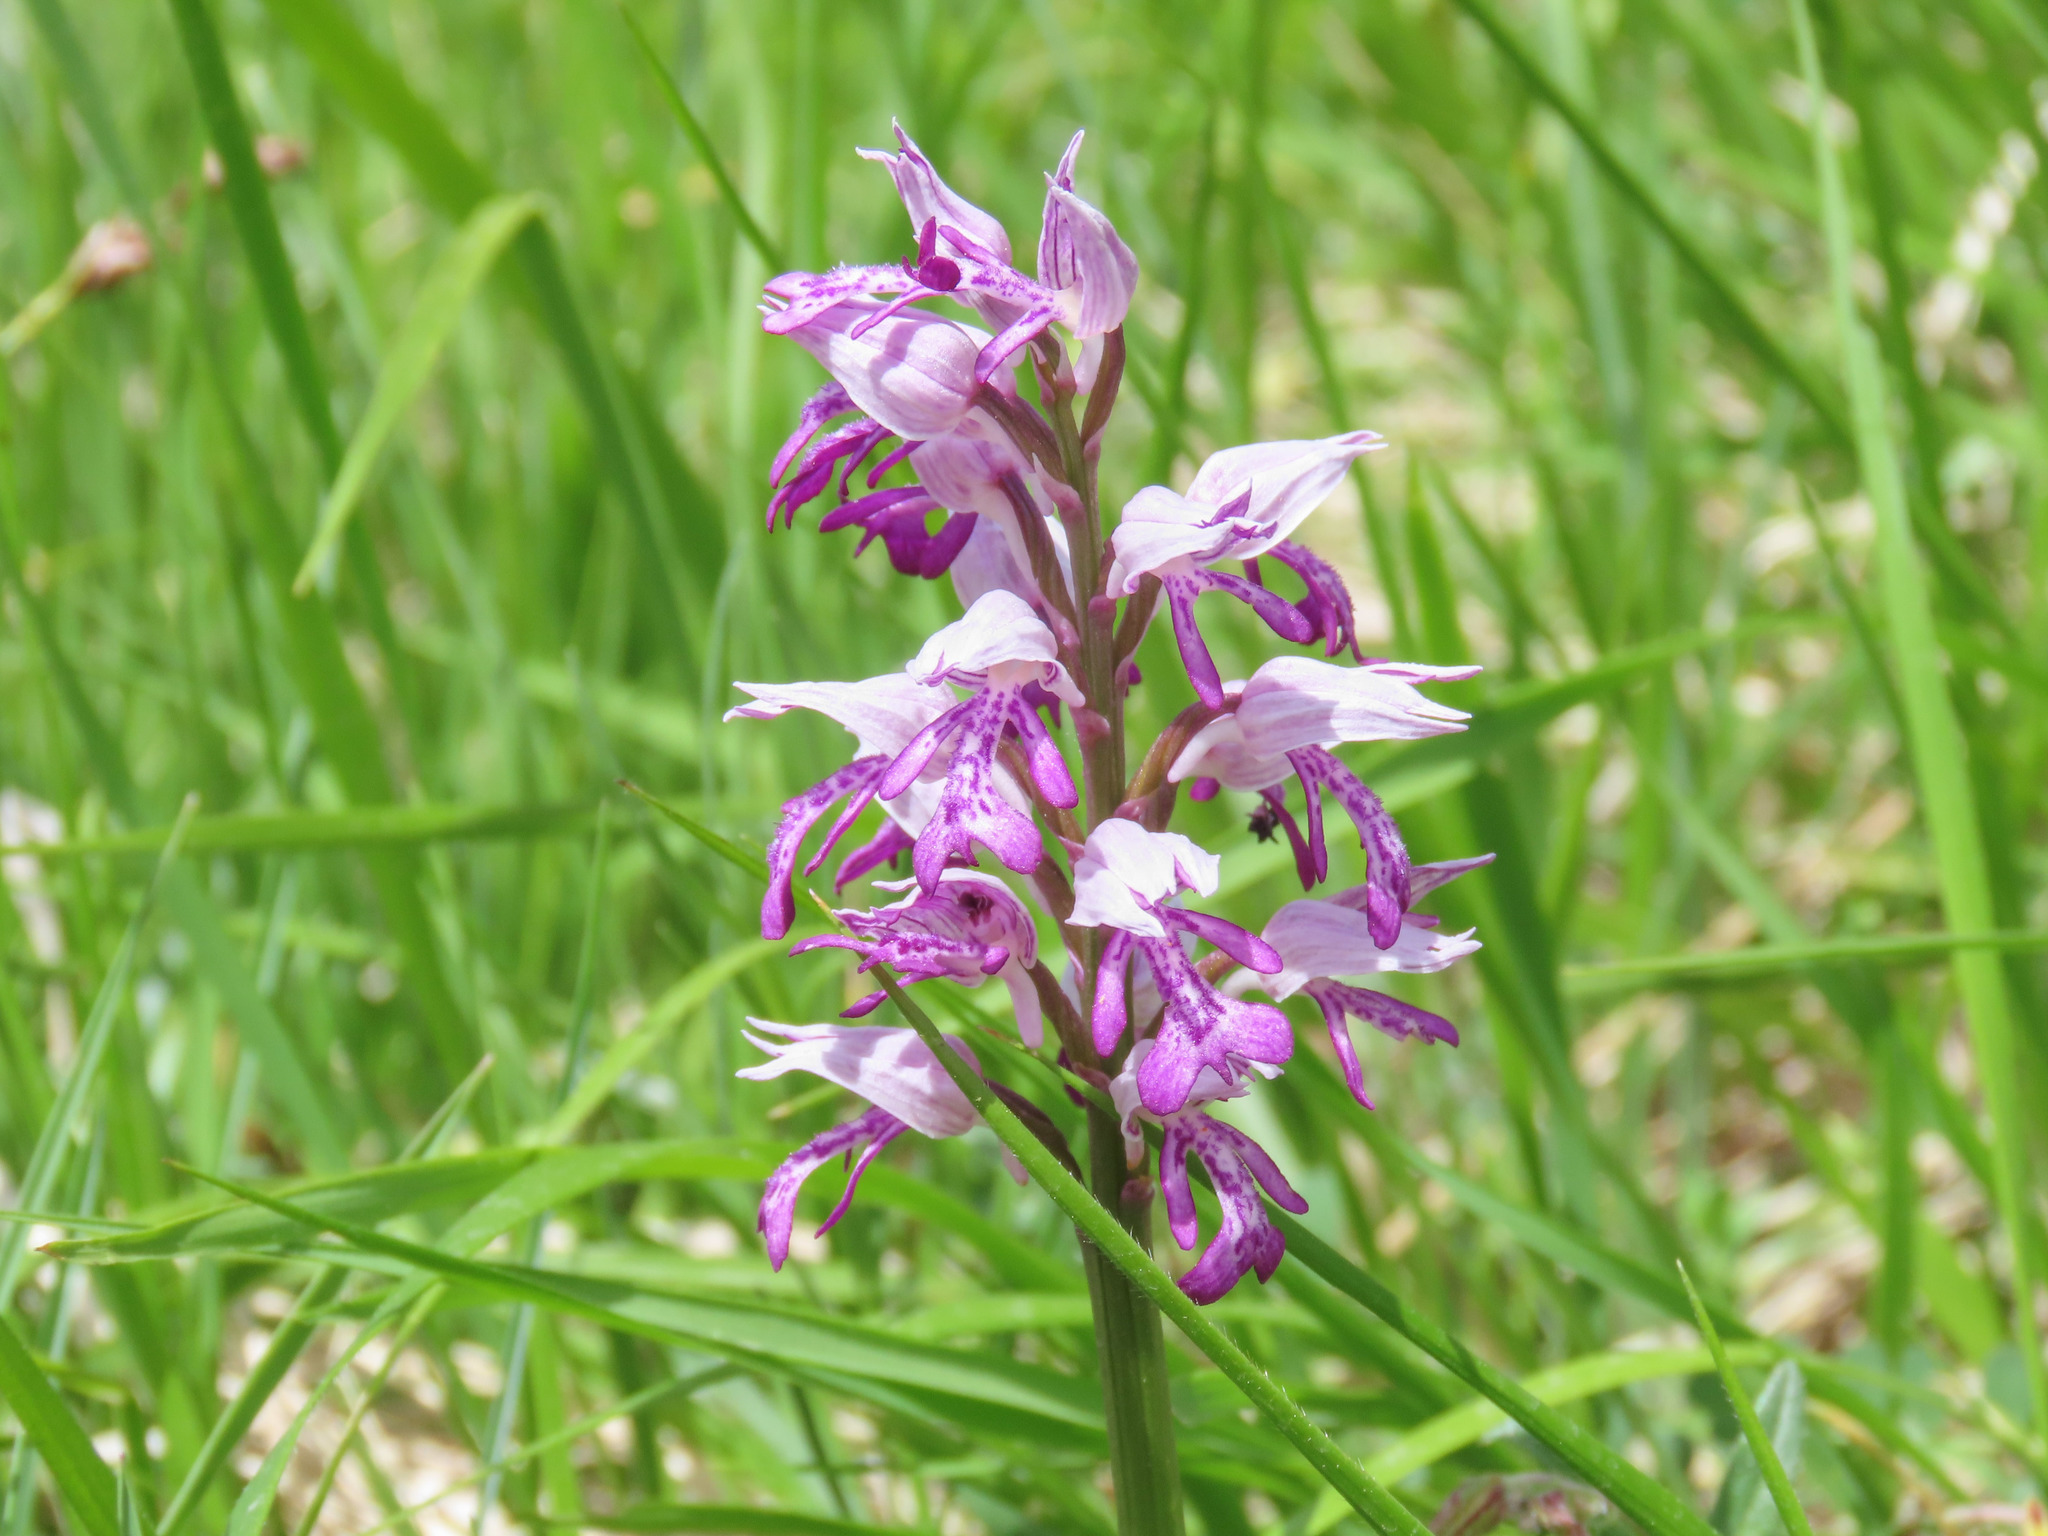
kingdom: Plantae
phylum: Tracheophyta
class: Liliopsida
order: Asparagales
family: Orchidaceae
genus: Orchis
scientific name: Orchis militaris
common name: Military orchid
